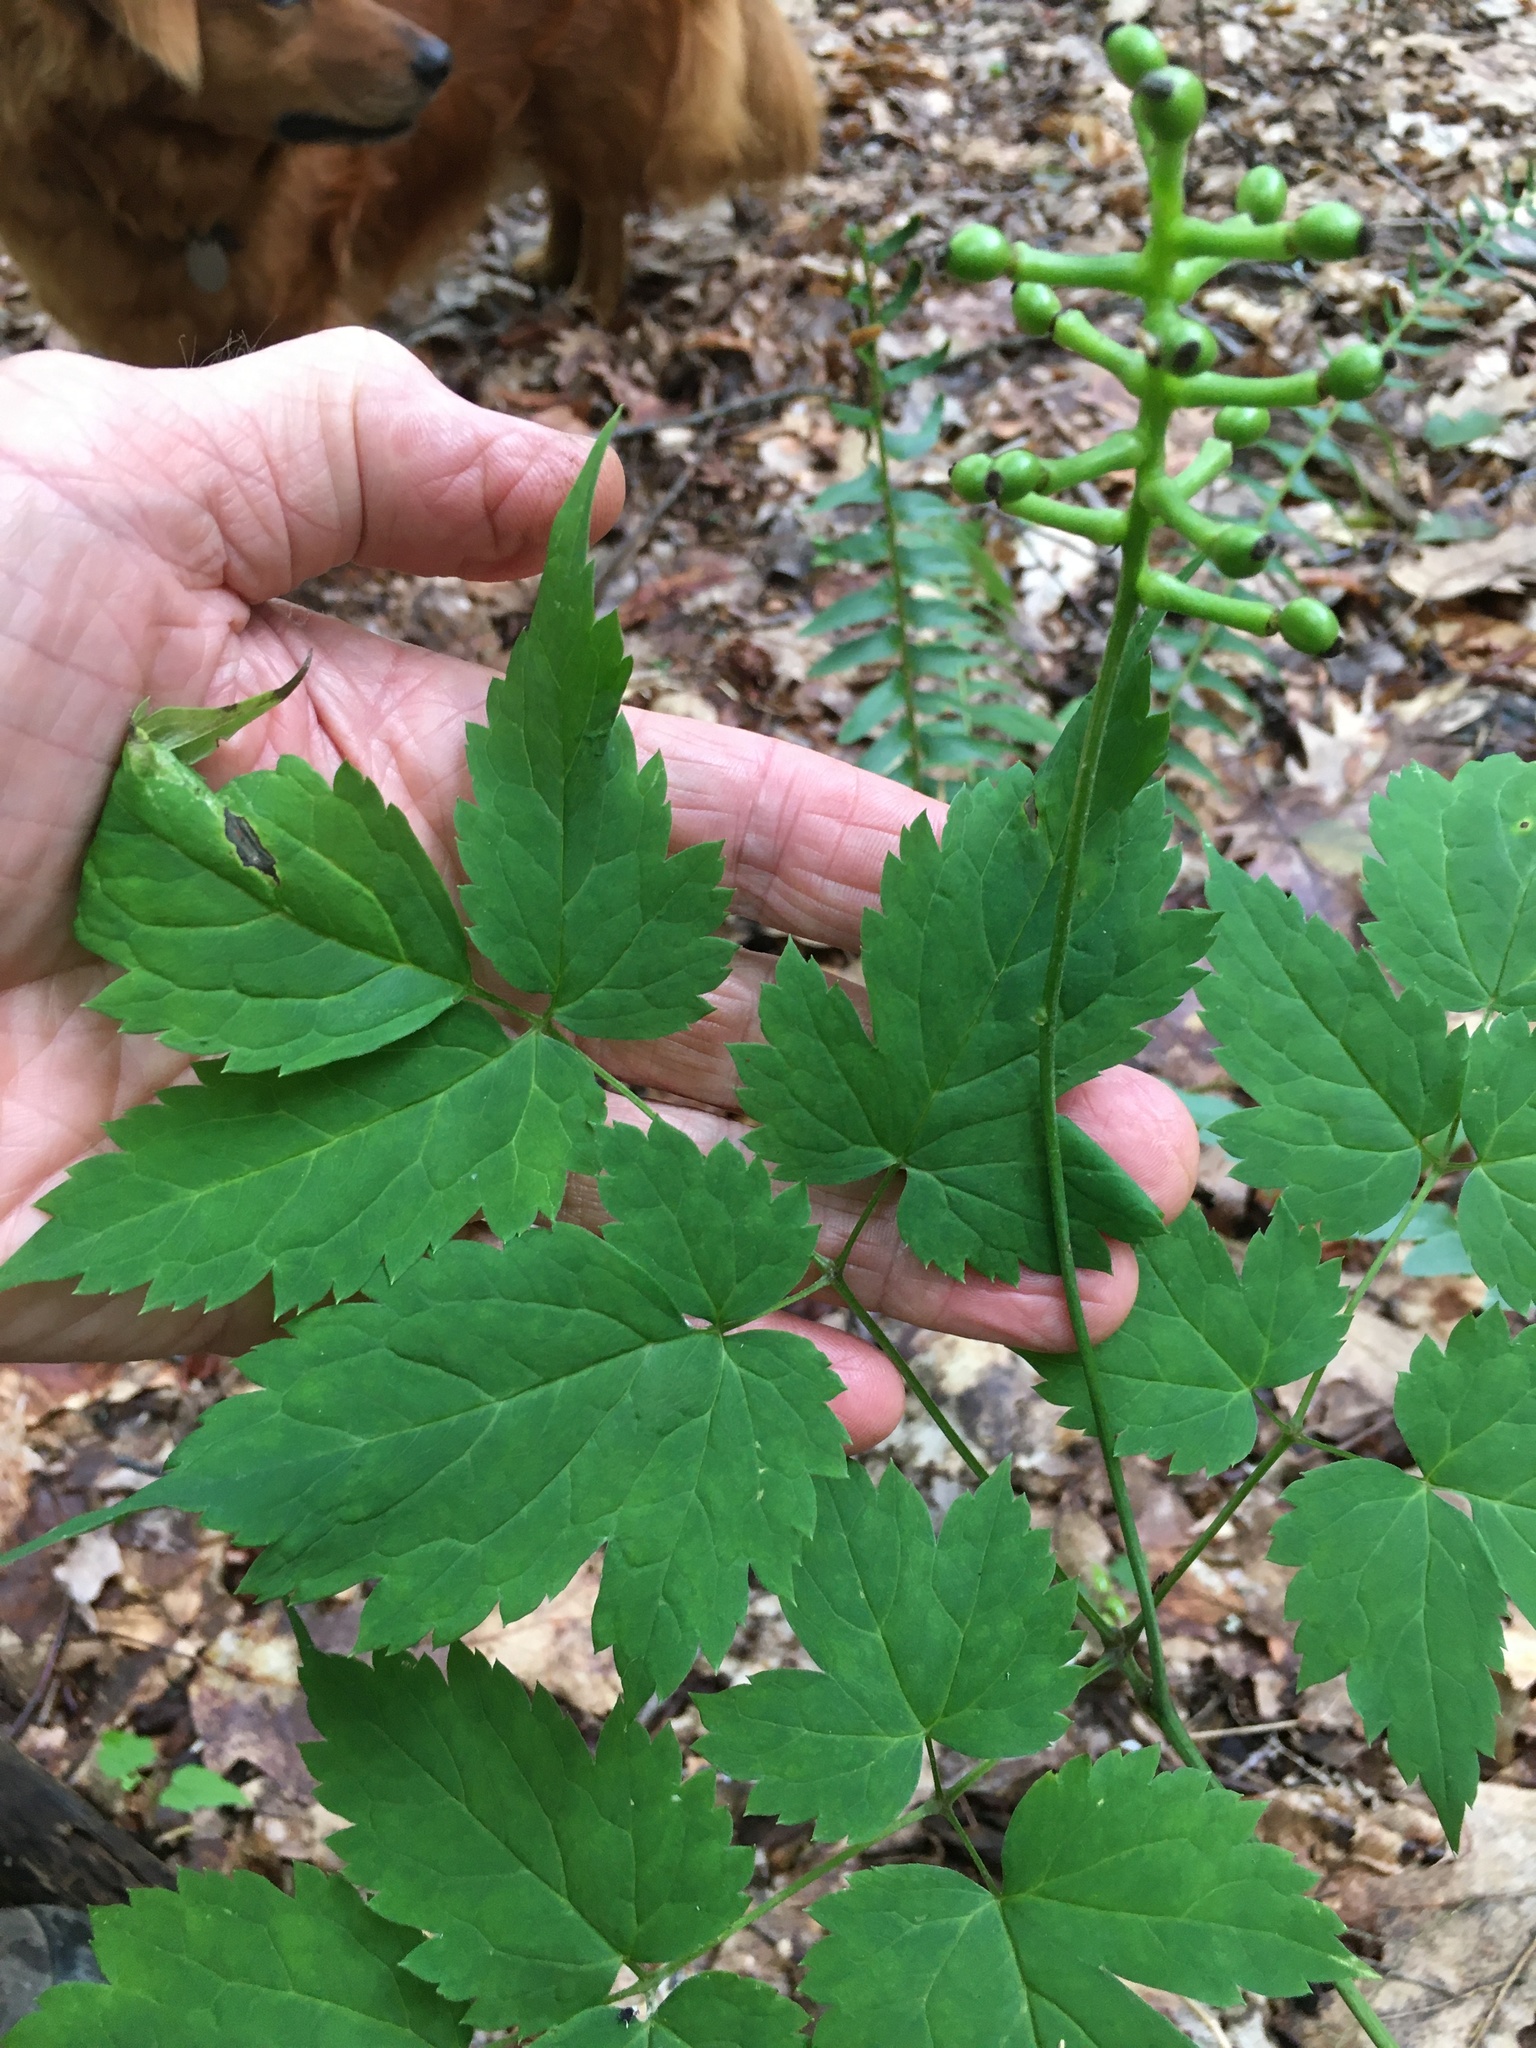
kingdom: Plantae
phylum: Tracheophyta
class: Magnoliopsida
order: Ranunculales
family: Ranunculaceae
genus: Actaea
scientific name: Actaea pachypoda
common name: Doll's-eyes
